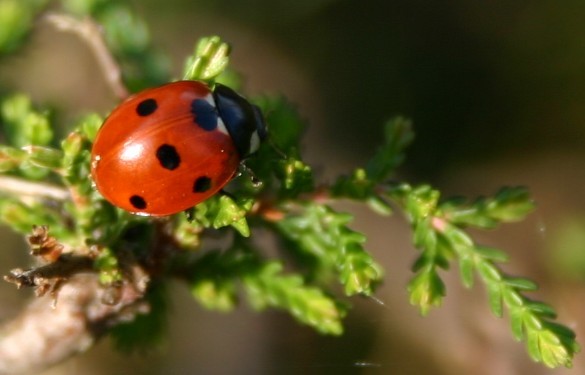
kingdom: Animalia
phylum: Arthropoda
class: Insecta
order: Coleoptera
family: Coccinellidae
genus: Coccinella
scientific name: Coccinella septempunctata
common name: Sevenspotted lady beetle
